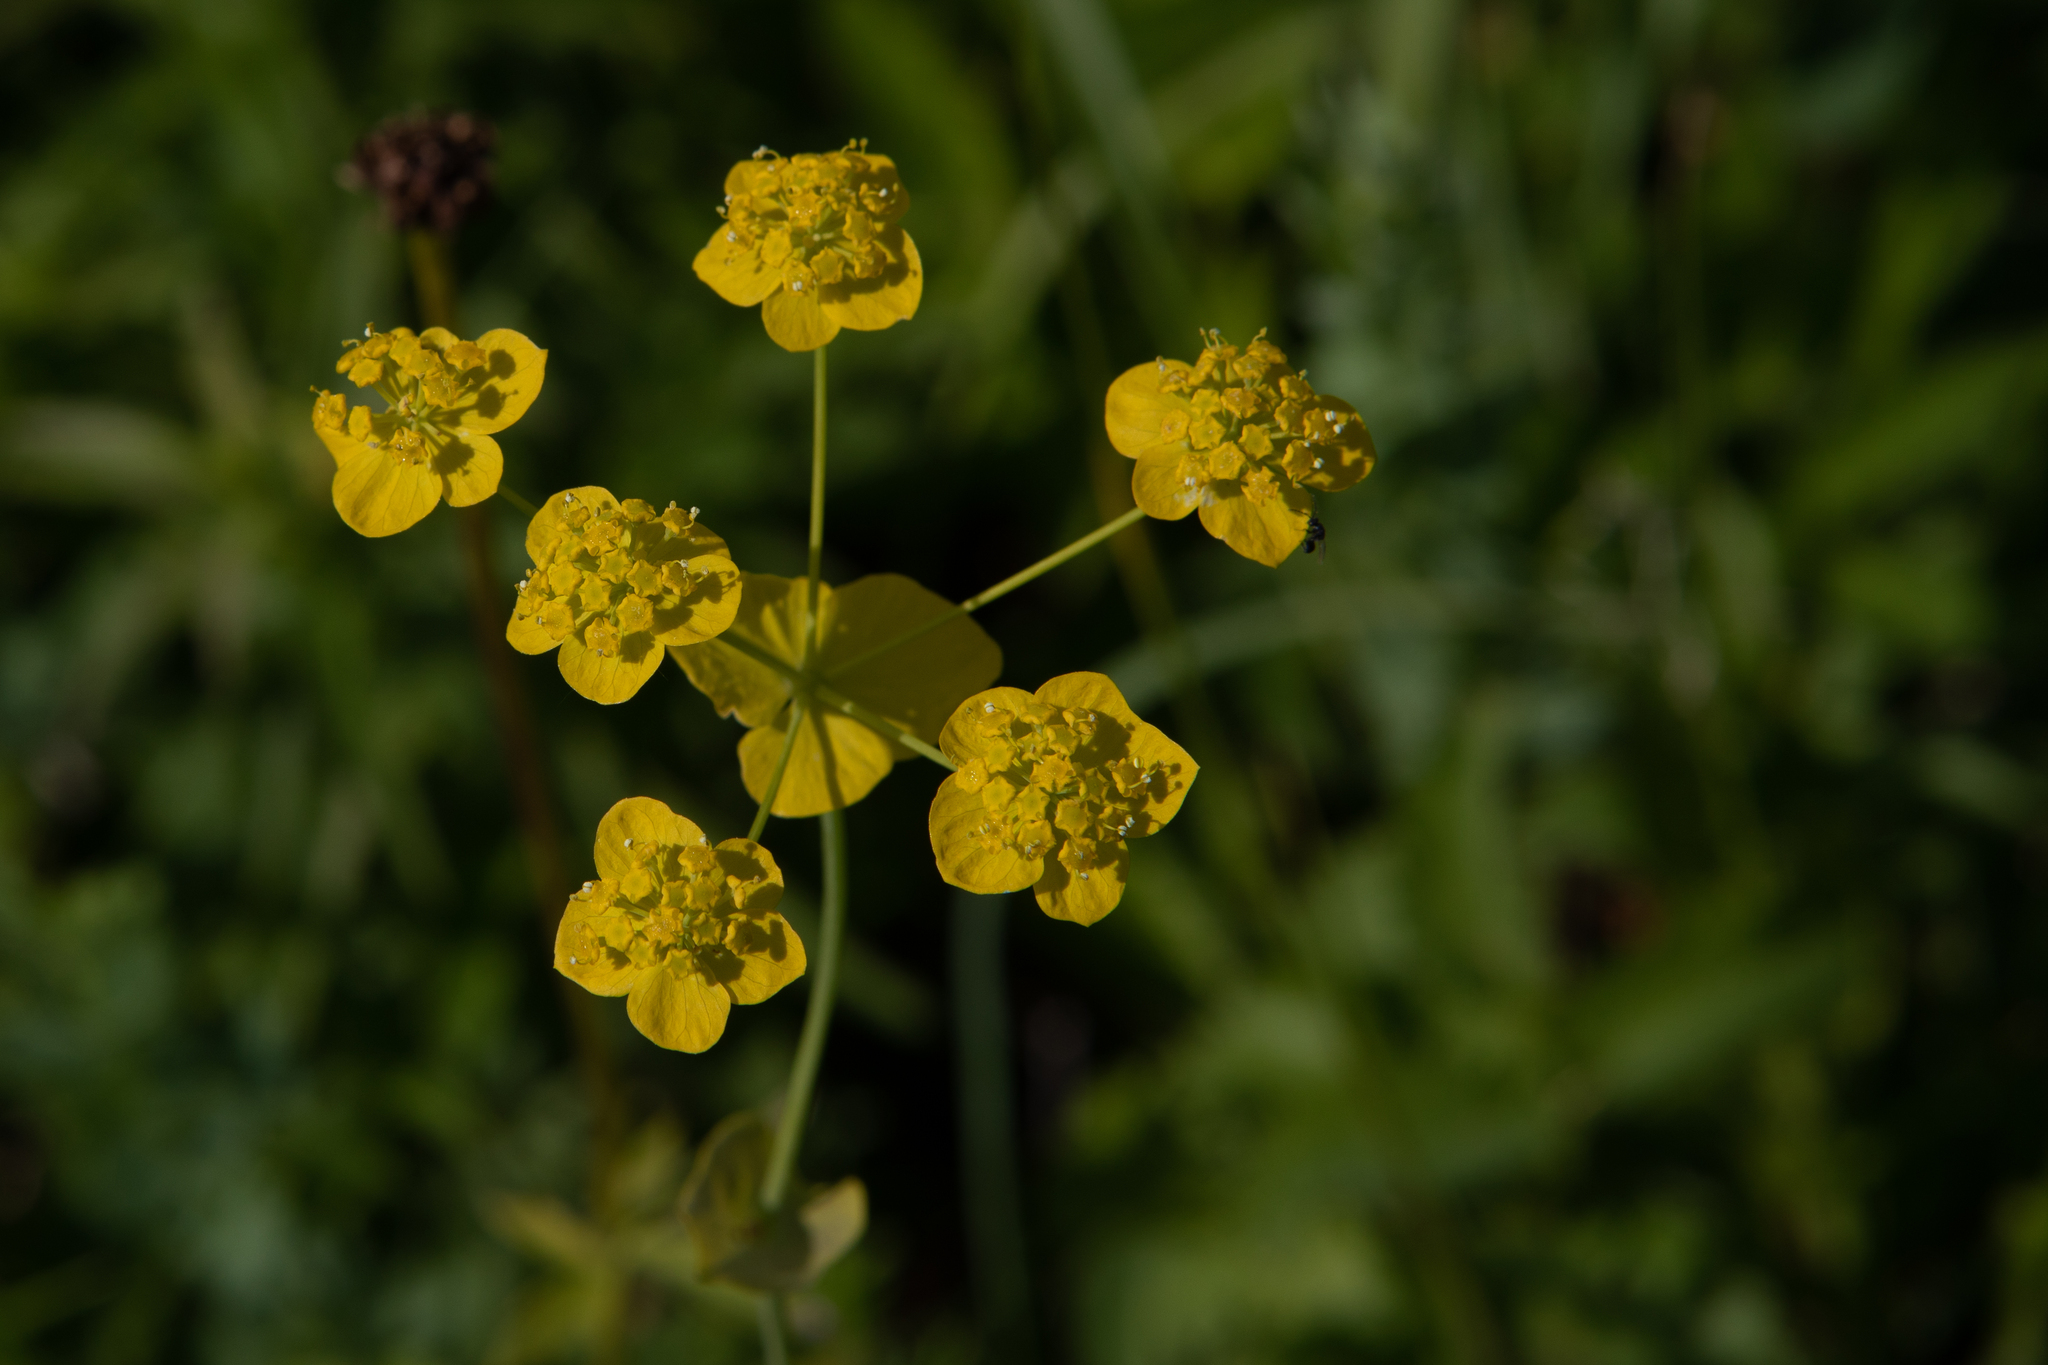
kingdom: Plantae
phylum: Tracheophyta
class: Magnoliopsida
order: Apiales
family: Apiaceae
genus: Bupleurum
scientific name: Bupleurum aureum
